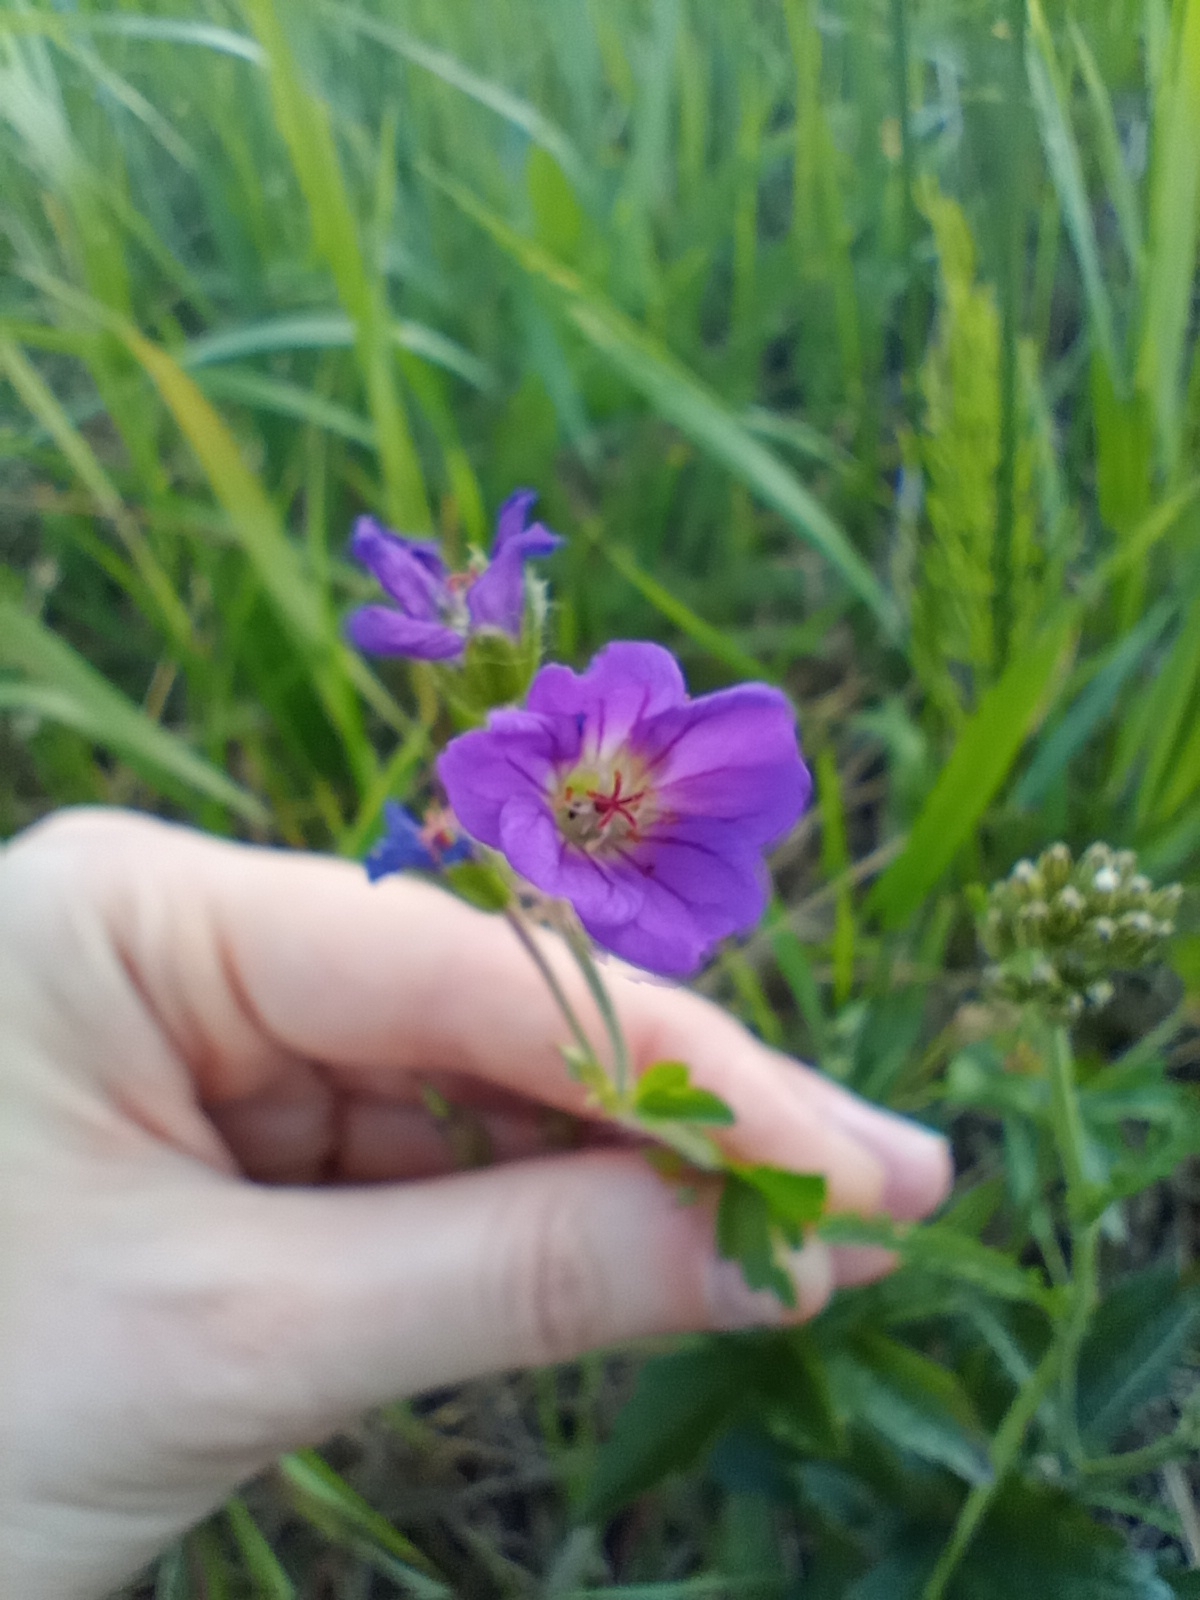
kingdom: Plantae
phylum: Tracheophyta
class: Magnoliopsida
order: Geraniales
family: Geraniaceae
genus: Geranium
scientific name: Geranium sylvaticum
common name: Wood crane's-bill
